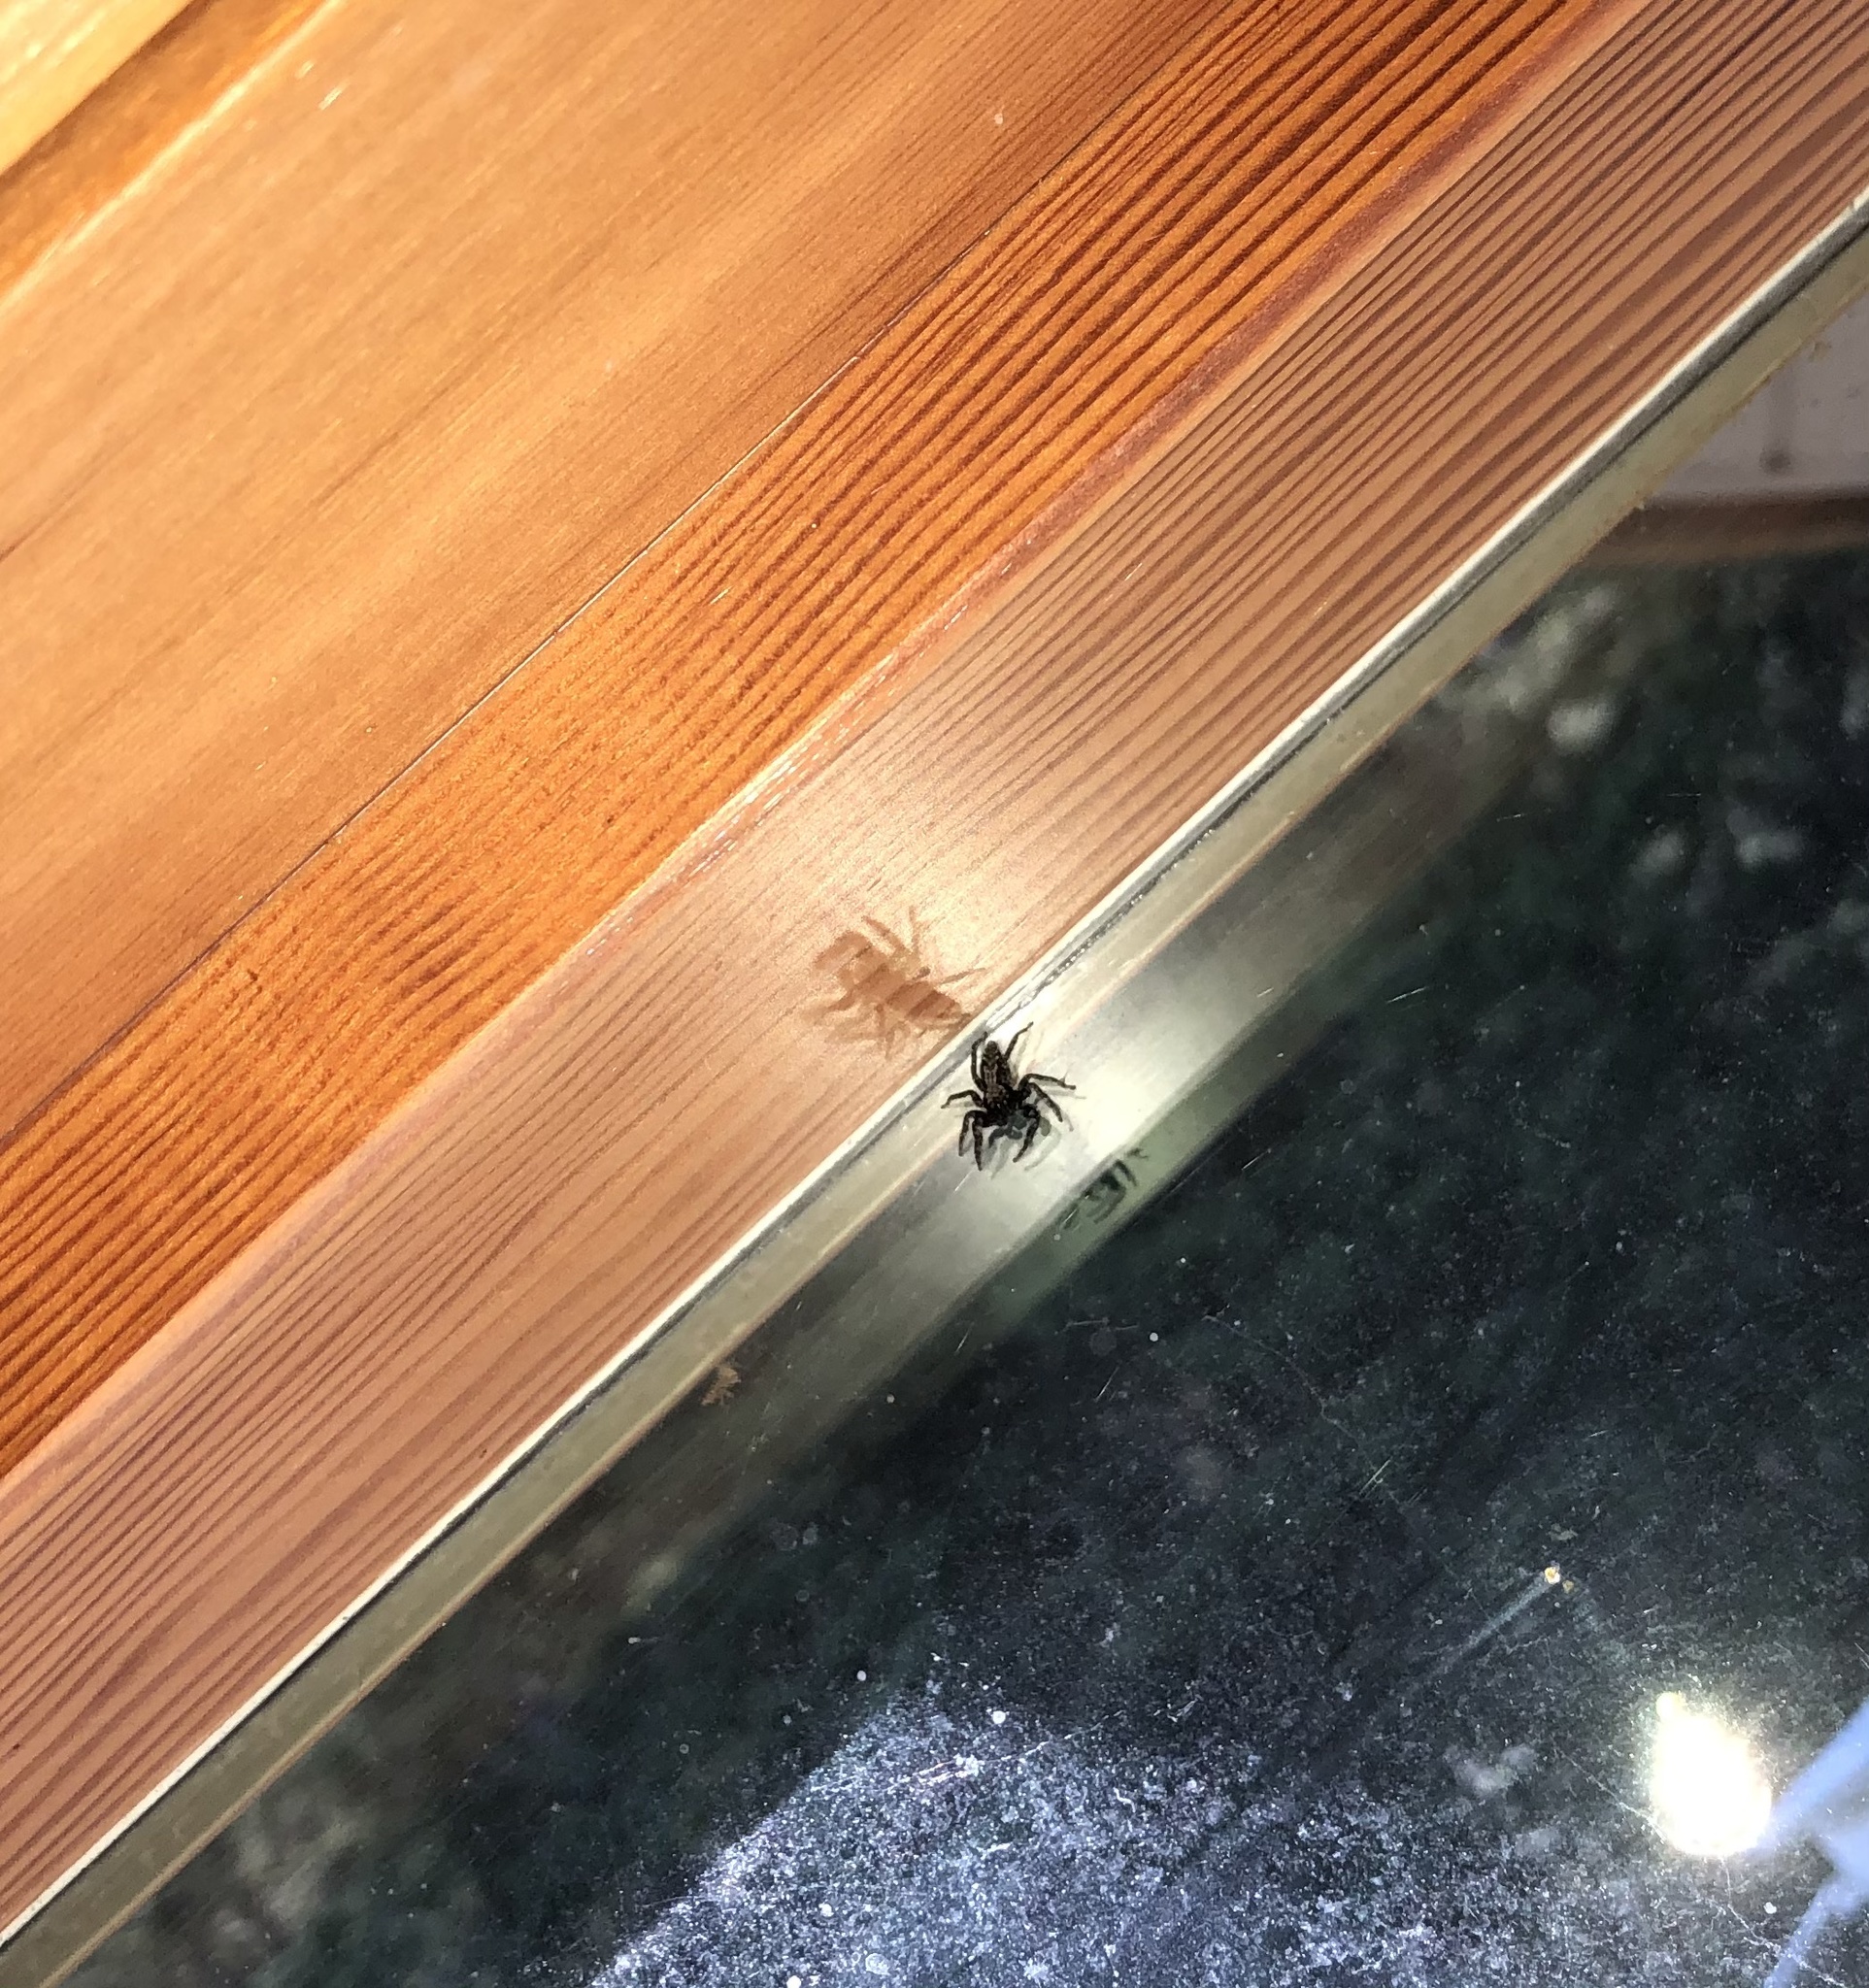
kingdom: Animalia
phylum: Arthropoda
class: Arachnida
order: Araneae
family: Salticidae
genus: Platycryptus
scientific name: Platycryptus californicus
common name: Jumping spiders
